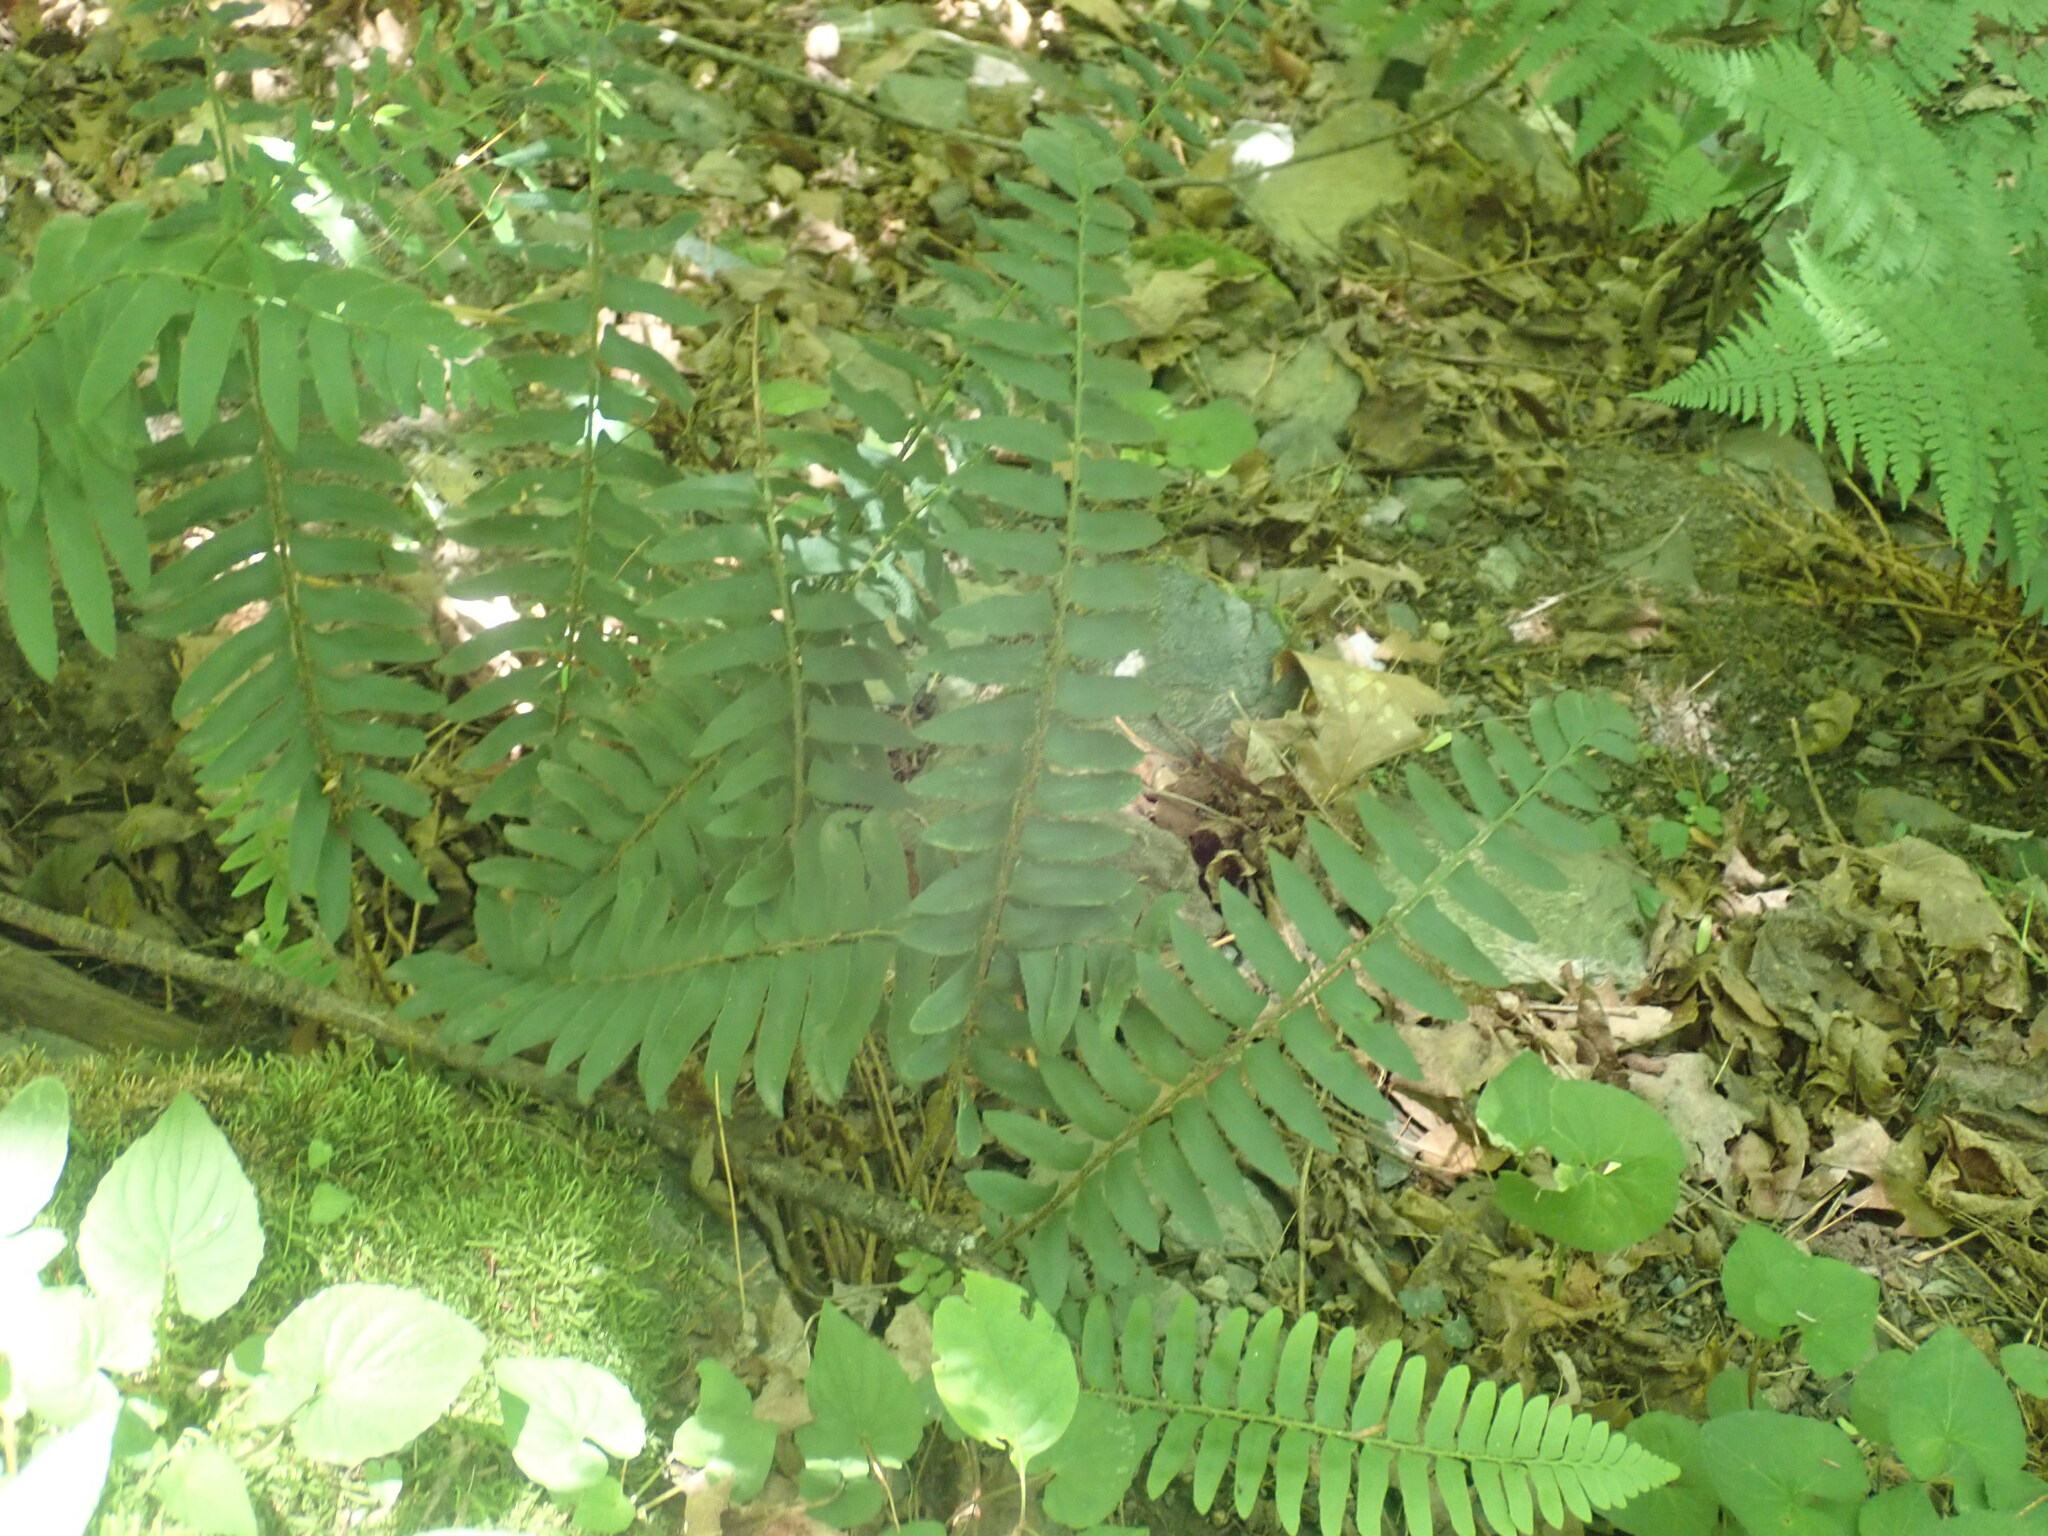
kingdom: Plantae
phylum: Tracheophyta
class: Polypodiopsida
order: Polypodiales
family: Dryopteridaceae
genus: Polystichum
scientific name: Polystichum acrostichoides
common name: Christmas fern
